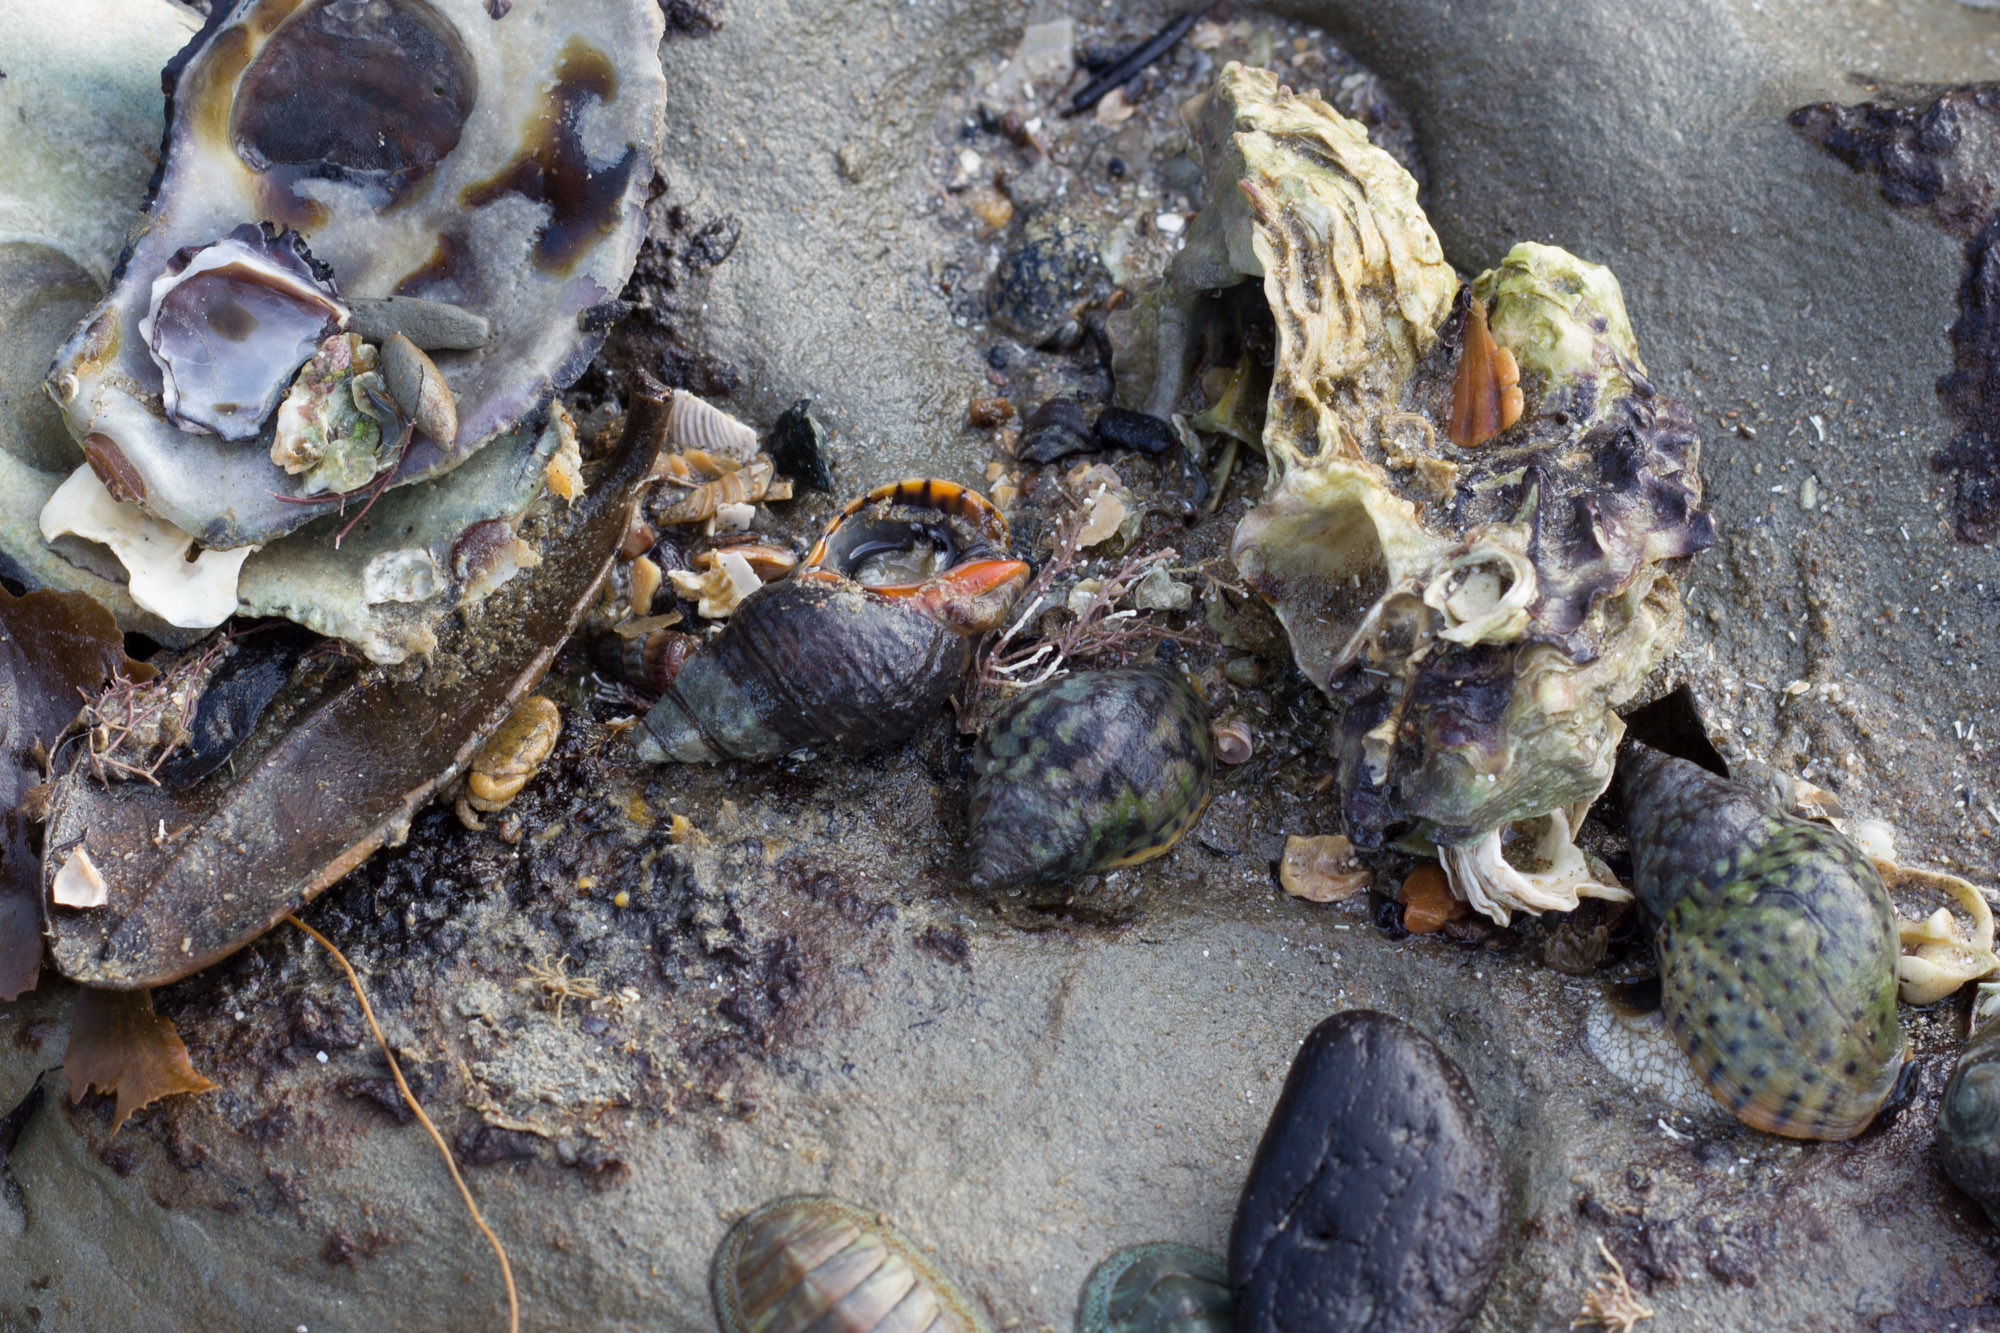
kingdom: Animalia
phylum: Mollusca
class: Gastropoda
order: Neogastropoda
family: Cominellidae
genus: Cominella
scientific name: Cominella
